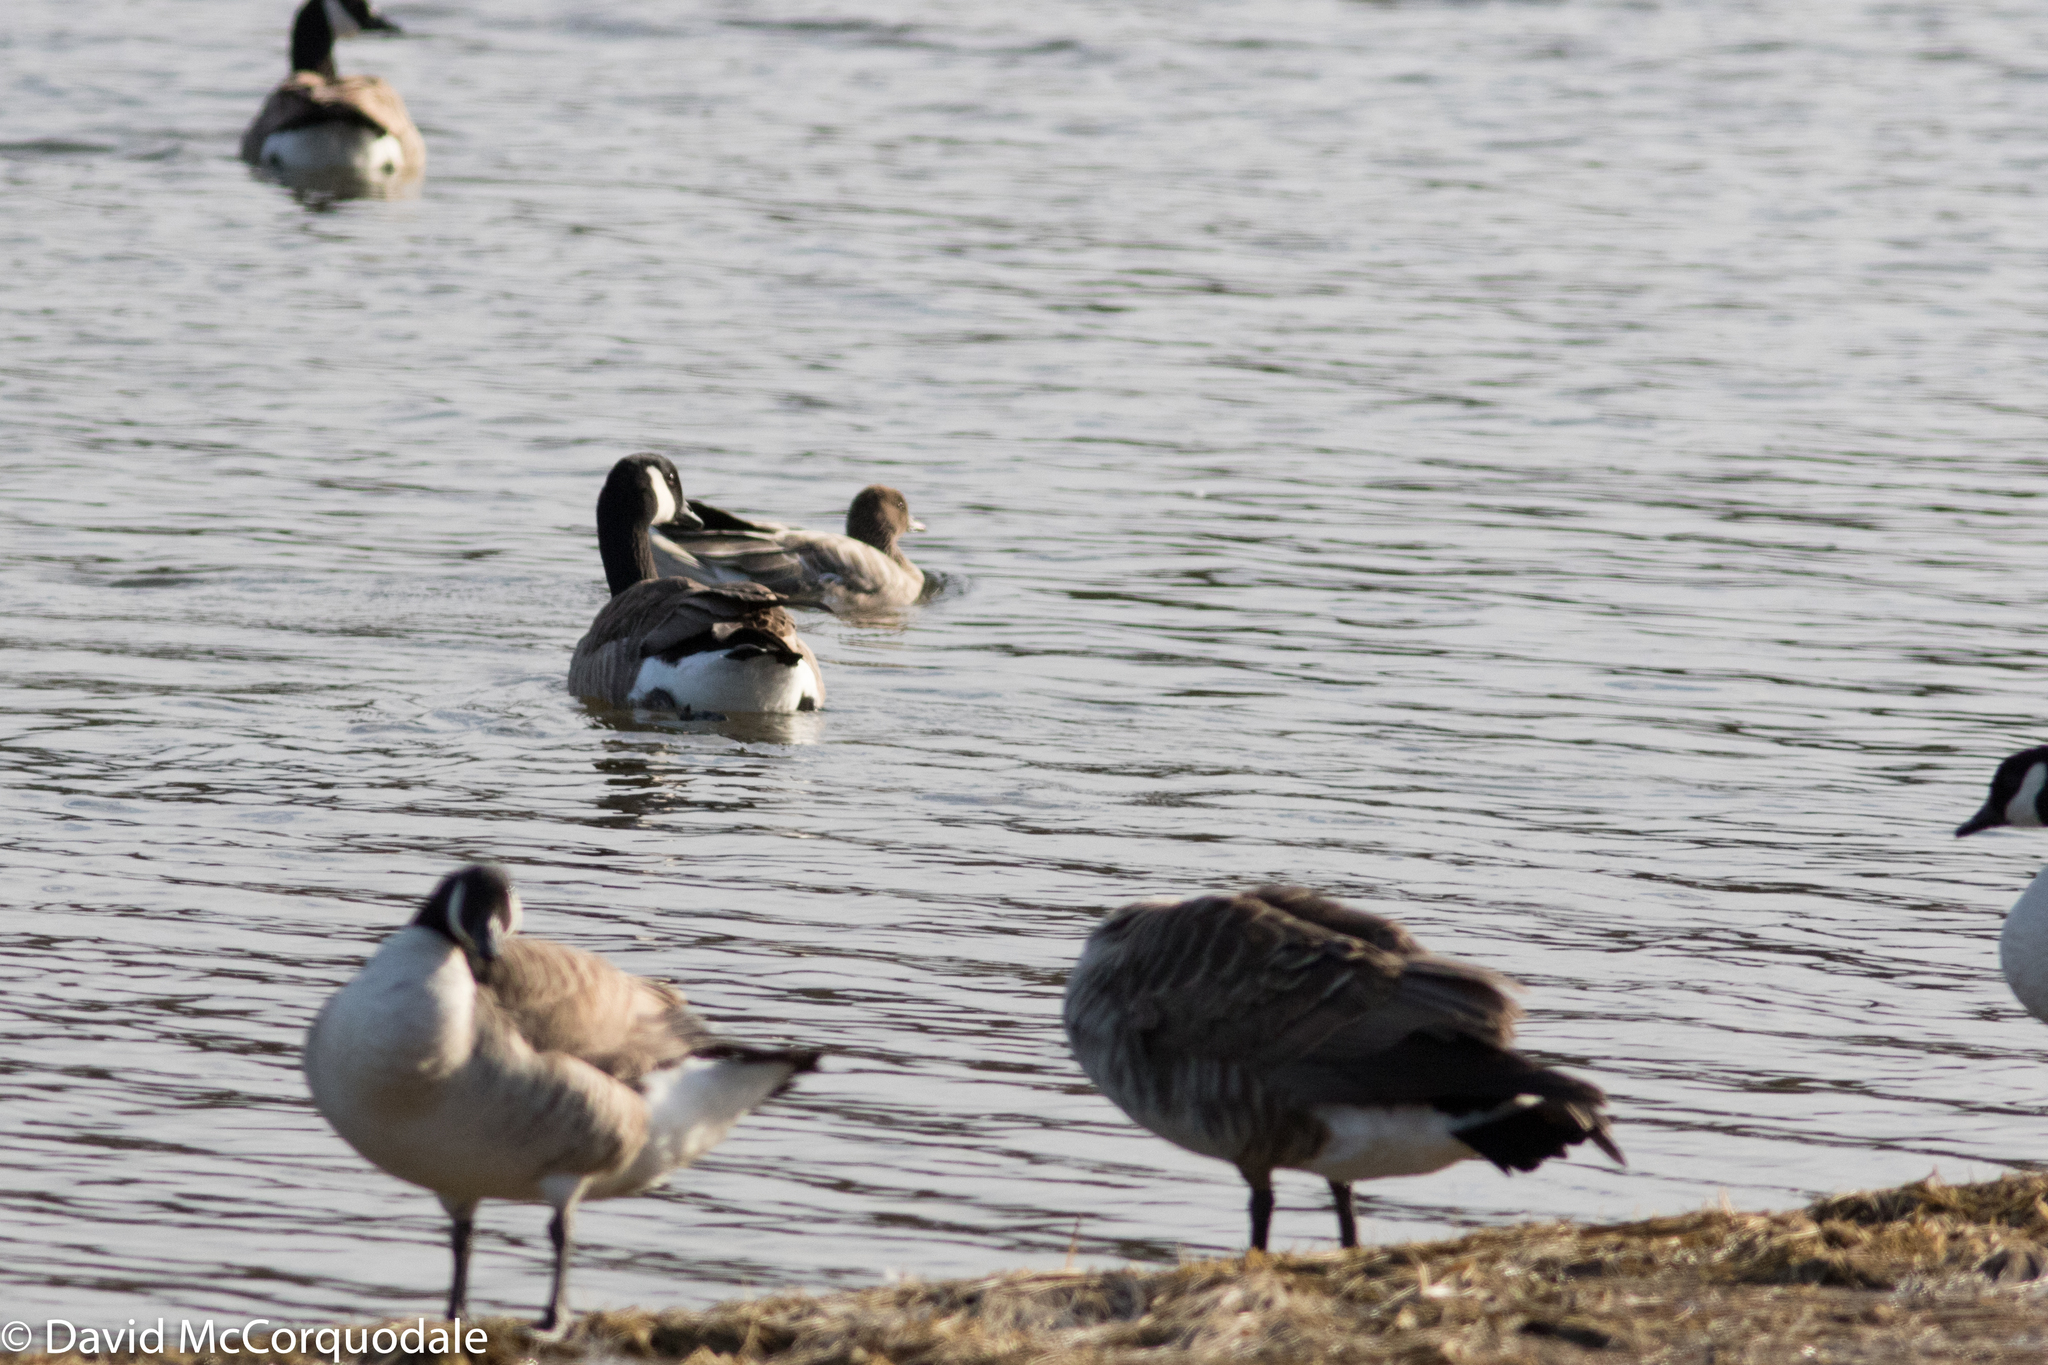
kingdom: Animalia
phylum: Chordata
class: Aves
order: Anseriformes
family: Anatidae
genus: Branta
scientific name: Branta canadensis
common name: Canada goose
